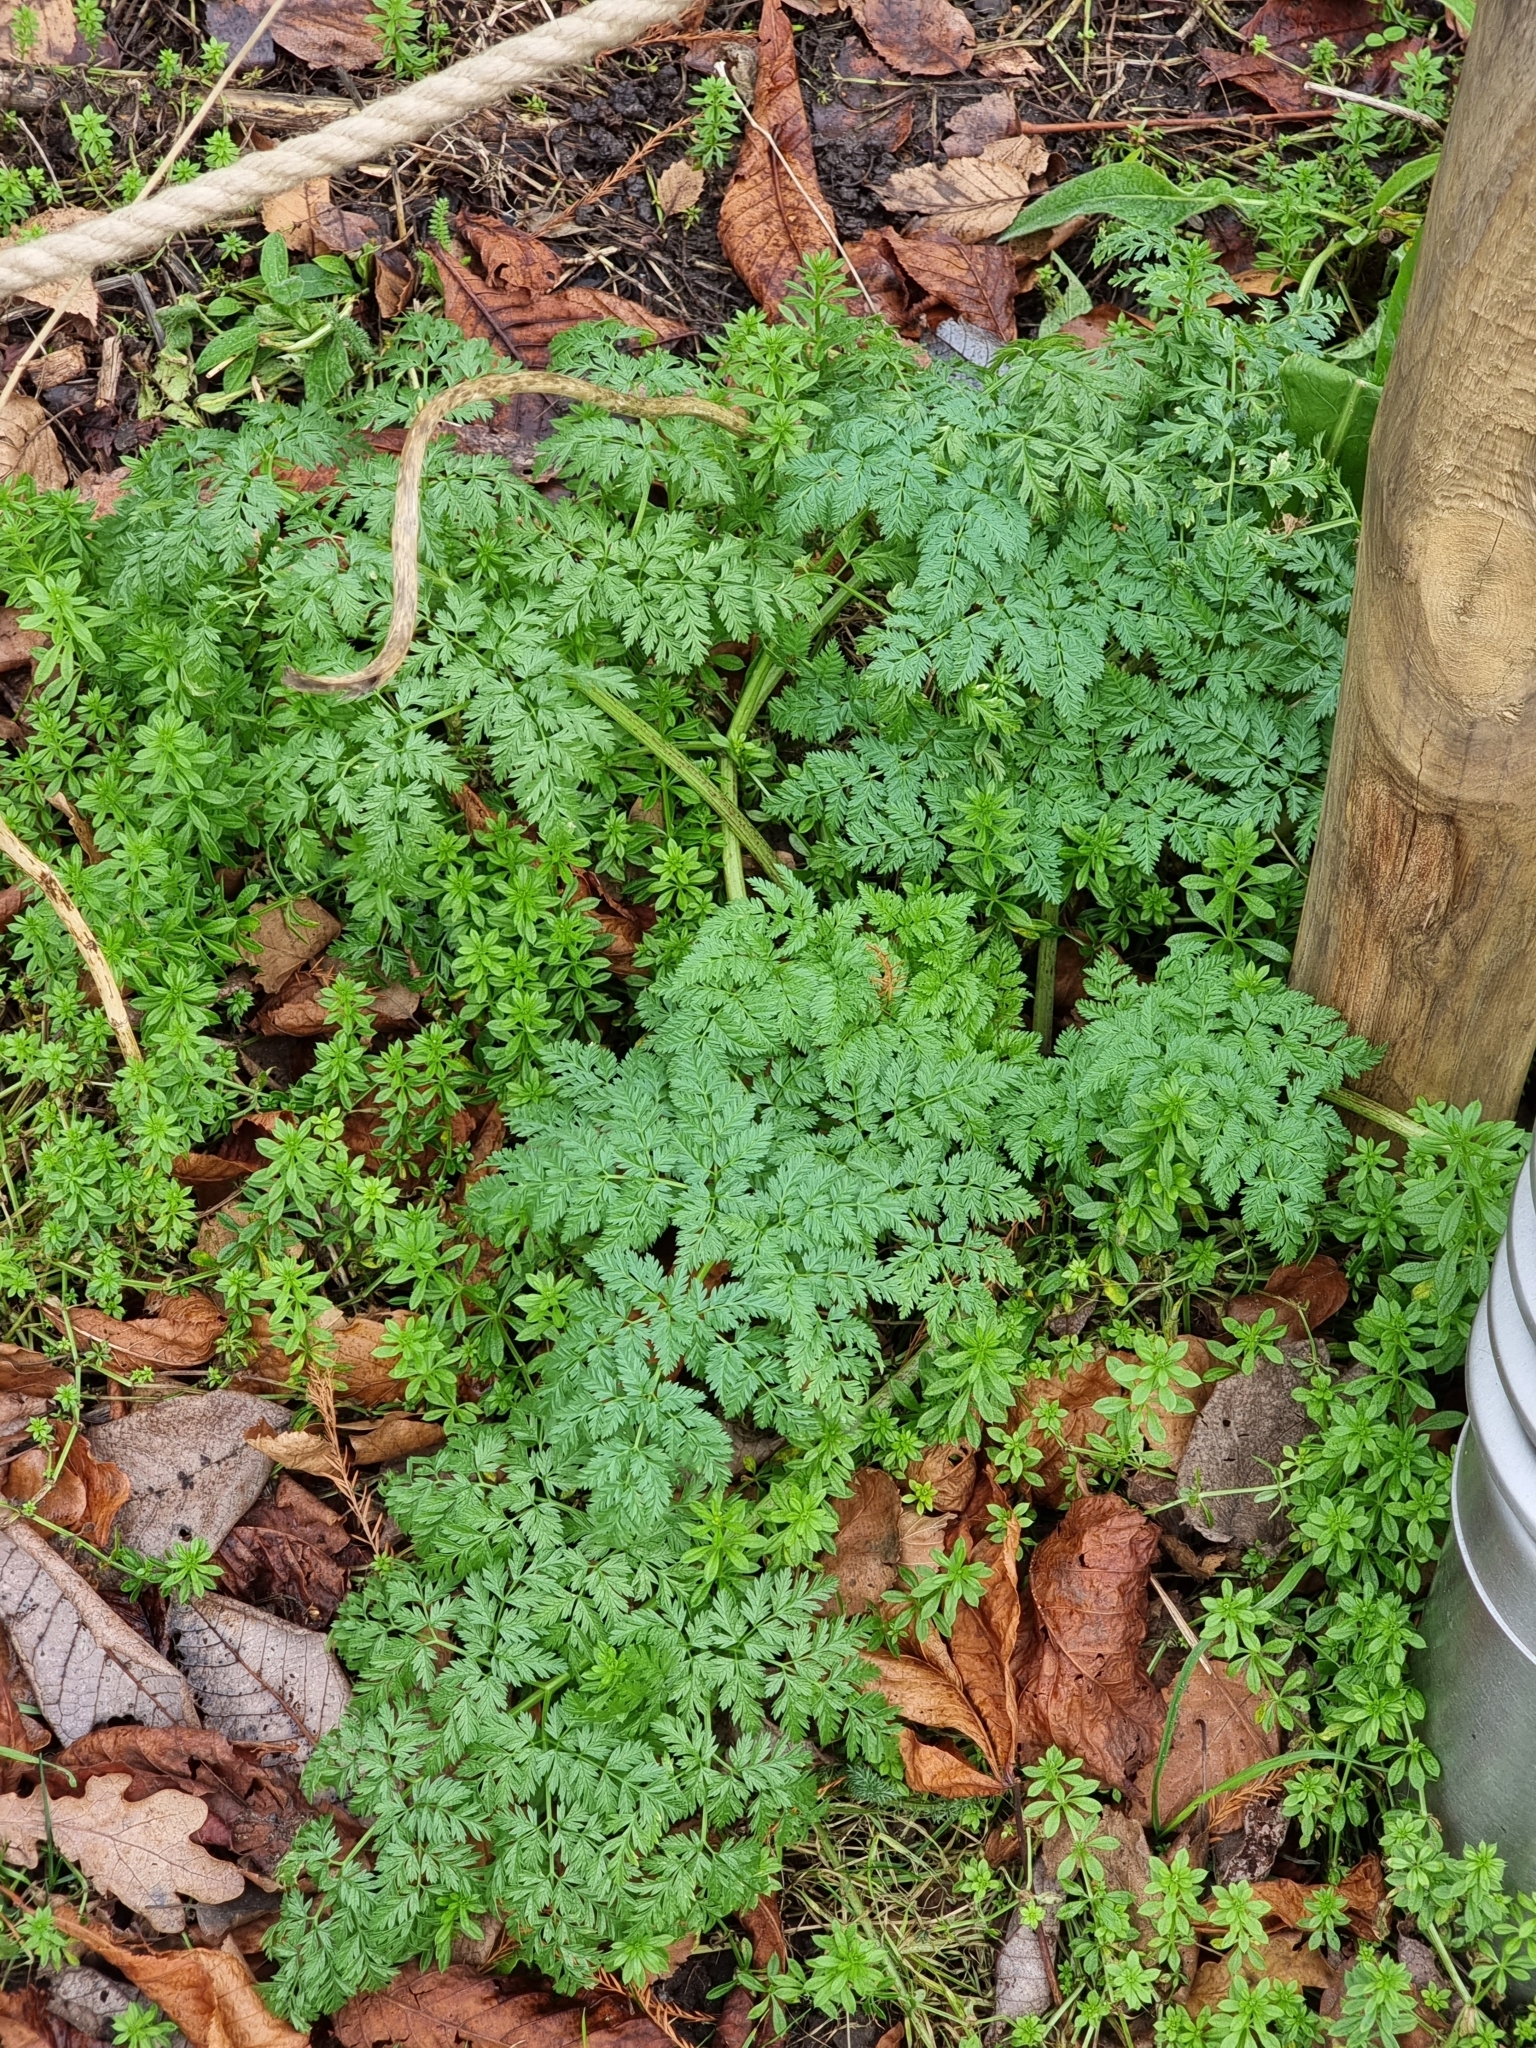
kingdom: Plantae
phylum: Tracheophyta
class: Magnoliopsida
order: Apiales
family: Apiaceae
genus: Conium
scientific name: Conium maculatum
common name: Hemlock
